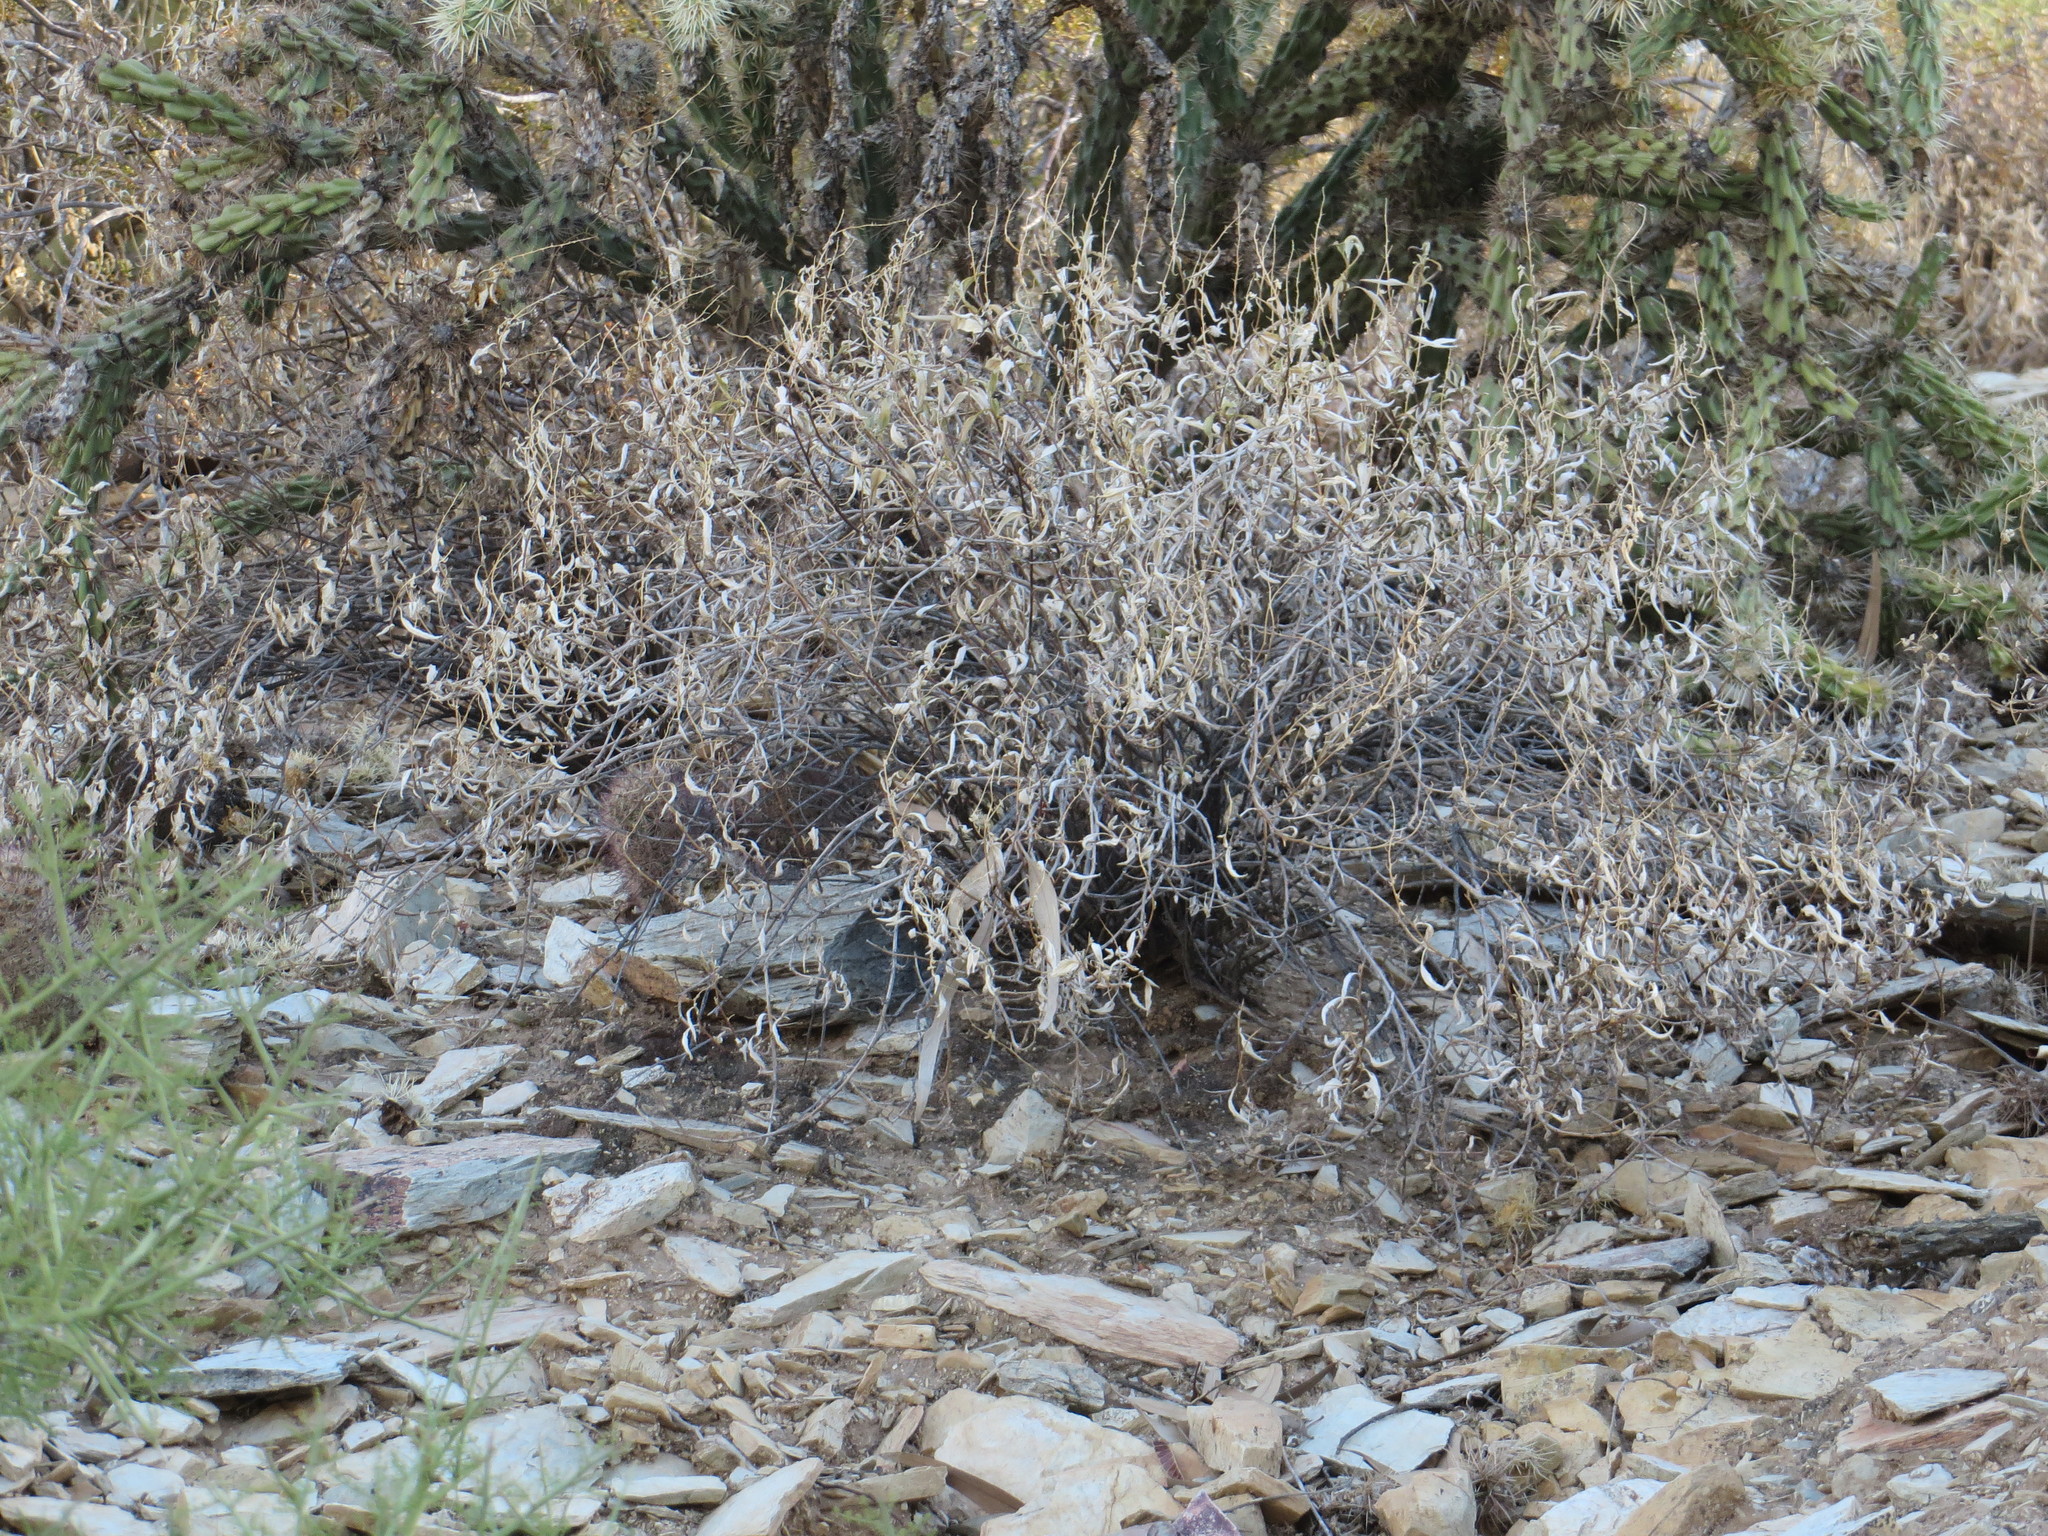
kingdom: Plantae
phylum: Tracheophyta
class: Magnoliopsida
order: Asterales
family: Asteraceae
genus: Ambrosia
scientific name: Ambrosia deltoidea
